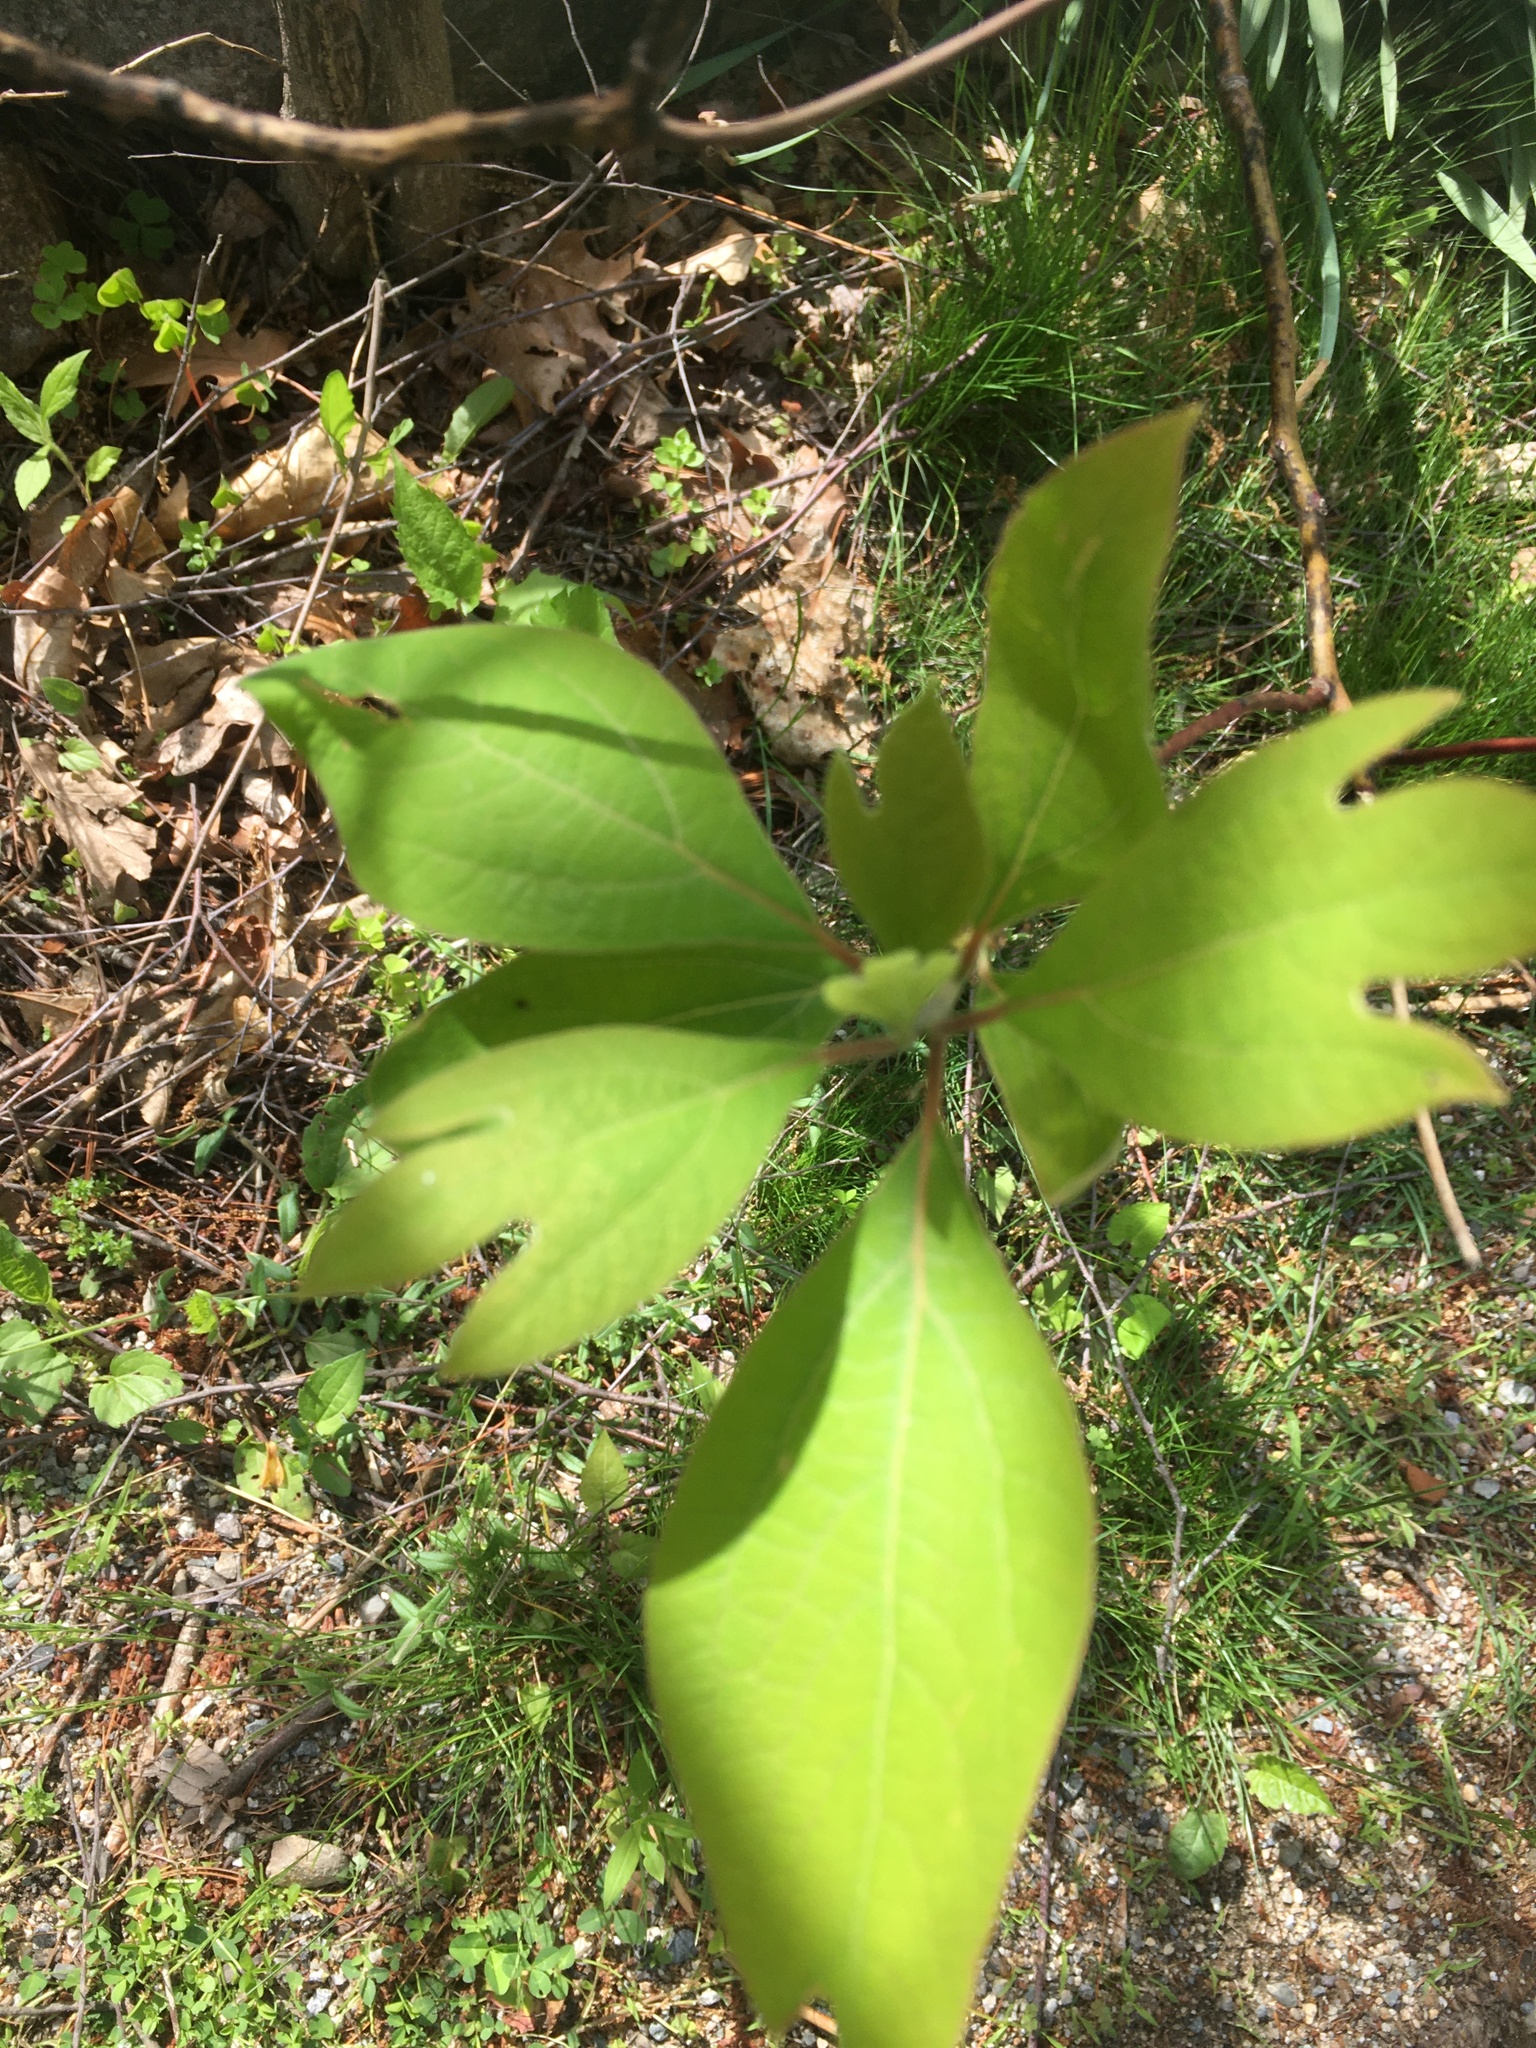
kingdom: Plantae
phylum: Tracheophyta
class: Magnoliopsida
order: Laurales
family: Lauraceae
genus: Sassafras
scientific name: Sassafras albidum
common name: Sassafras
